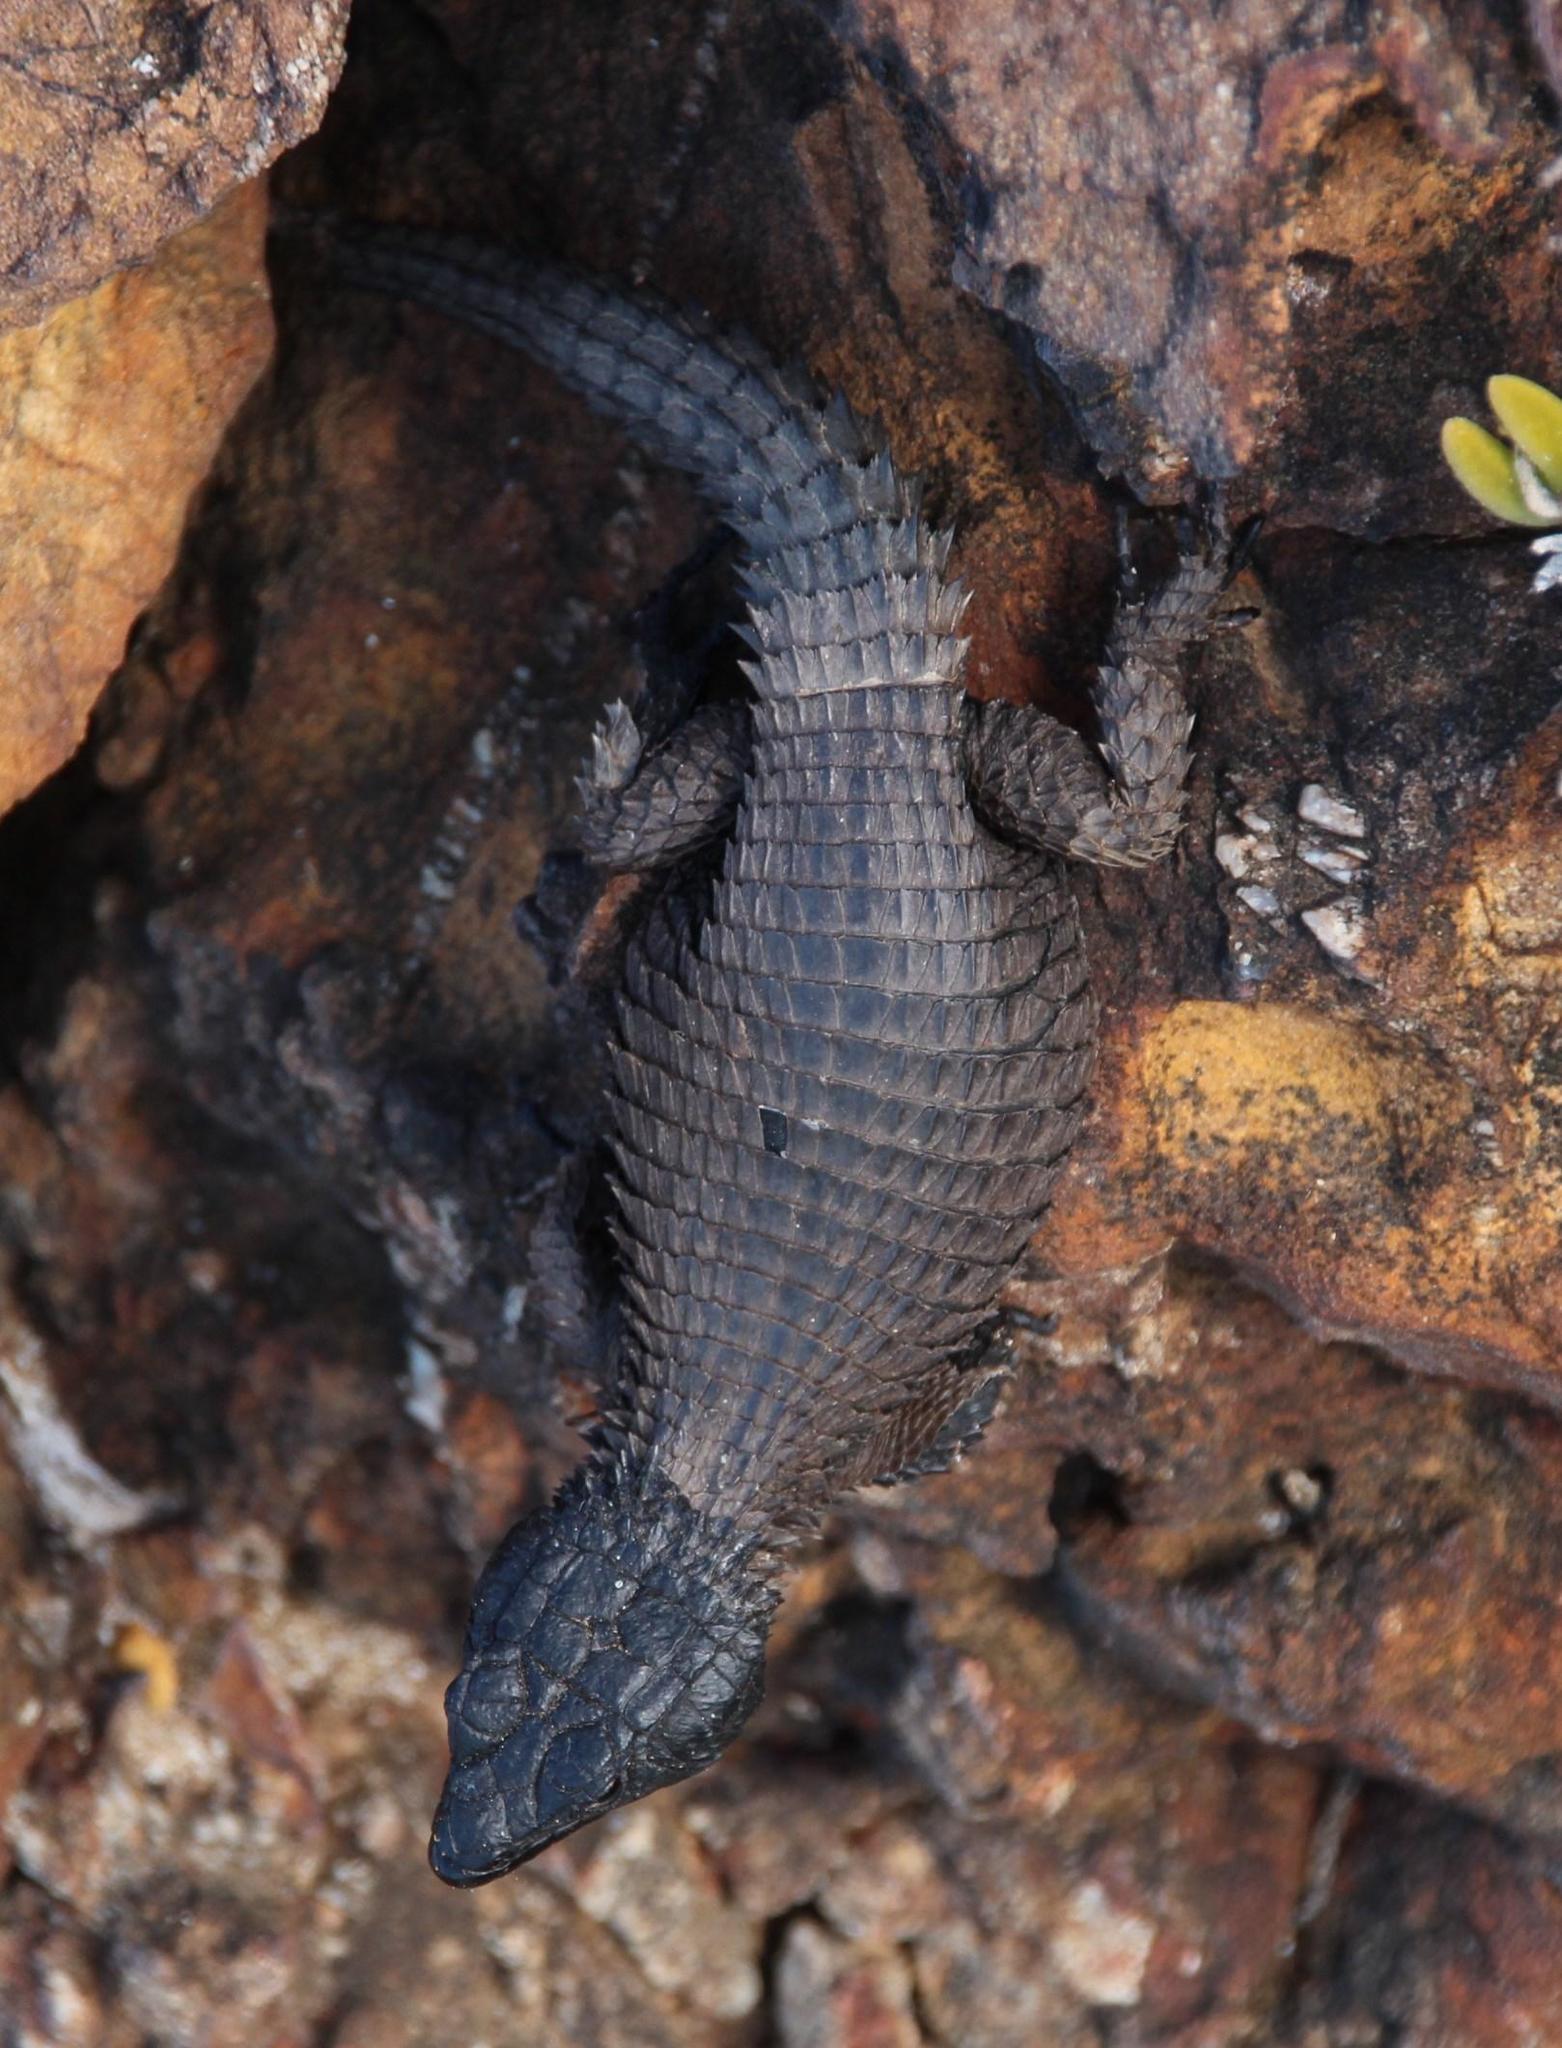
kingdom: Animalia
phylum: Chordata
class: Squamata
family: Cordylidae
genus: Cordylus
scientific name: Cordylus niger
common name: Black girdled lizard
